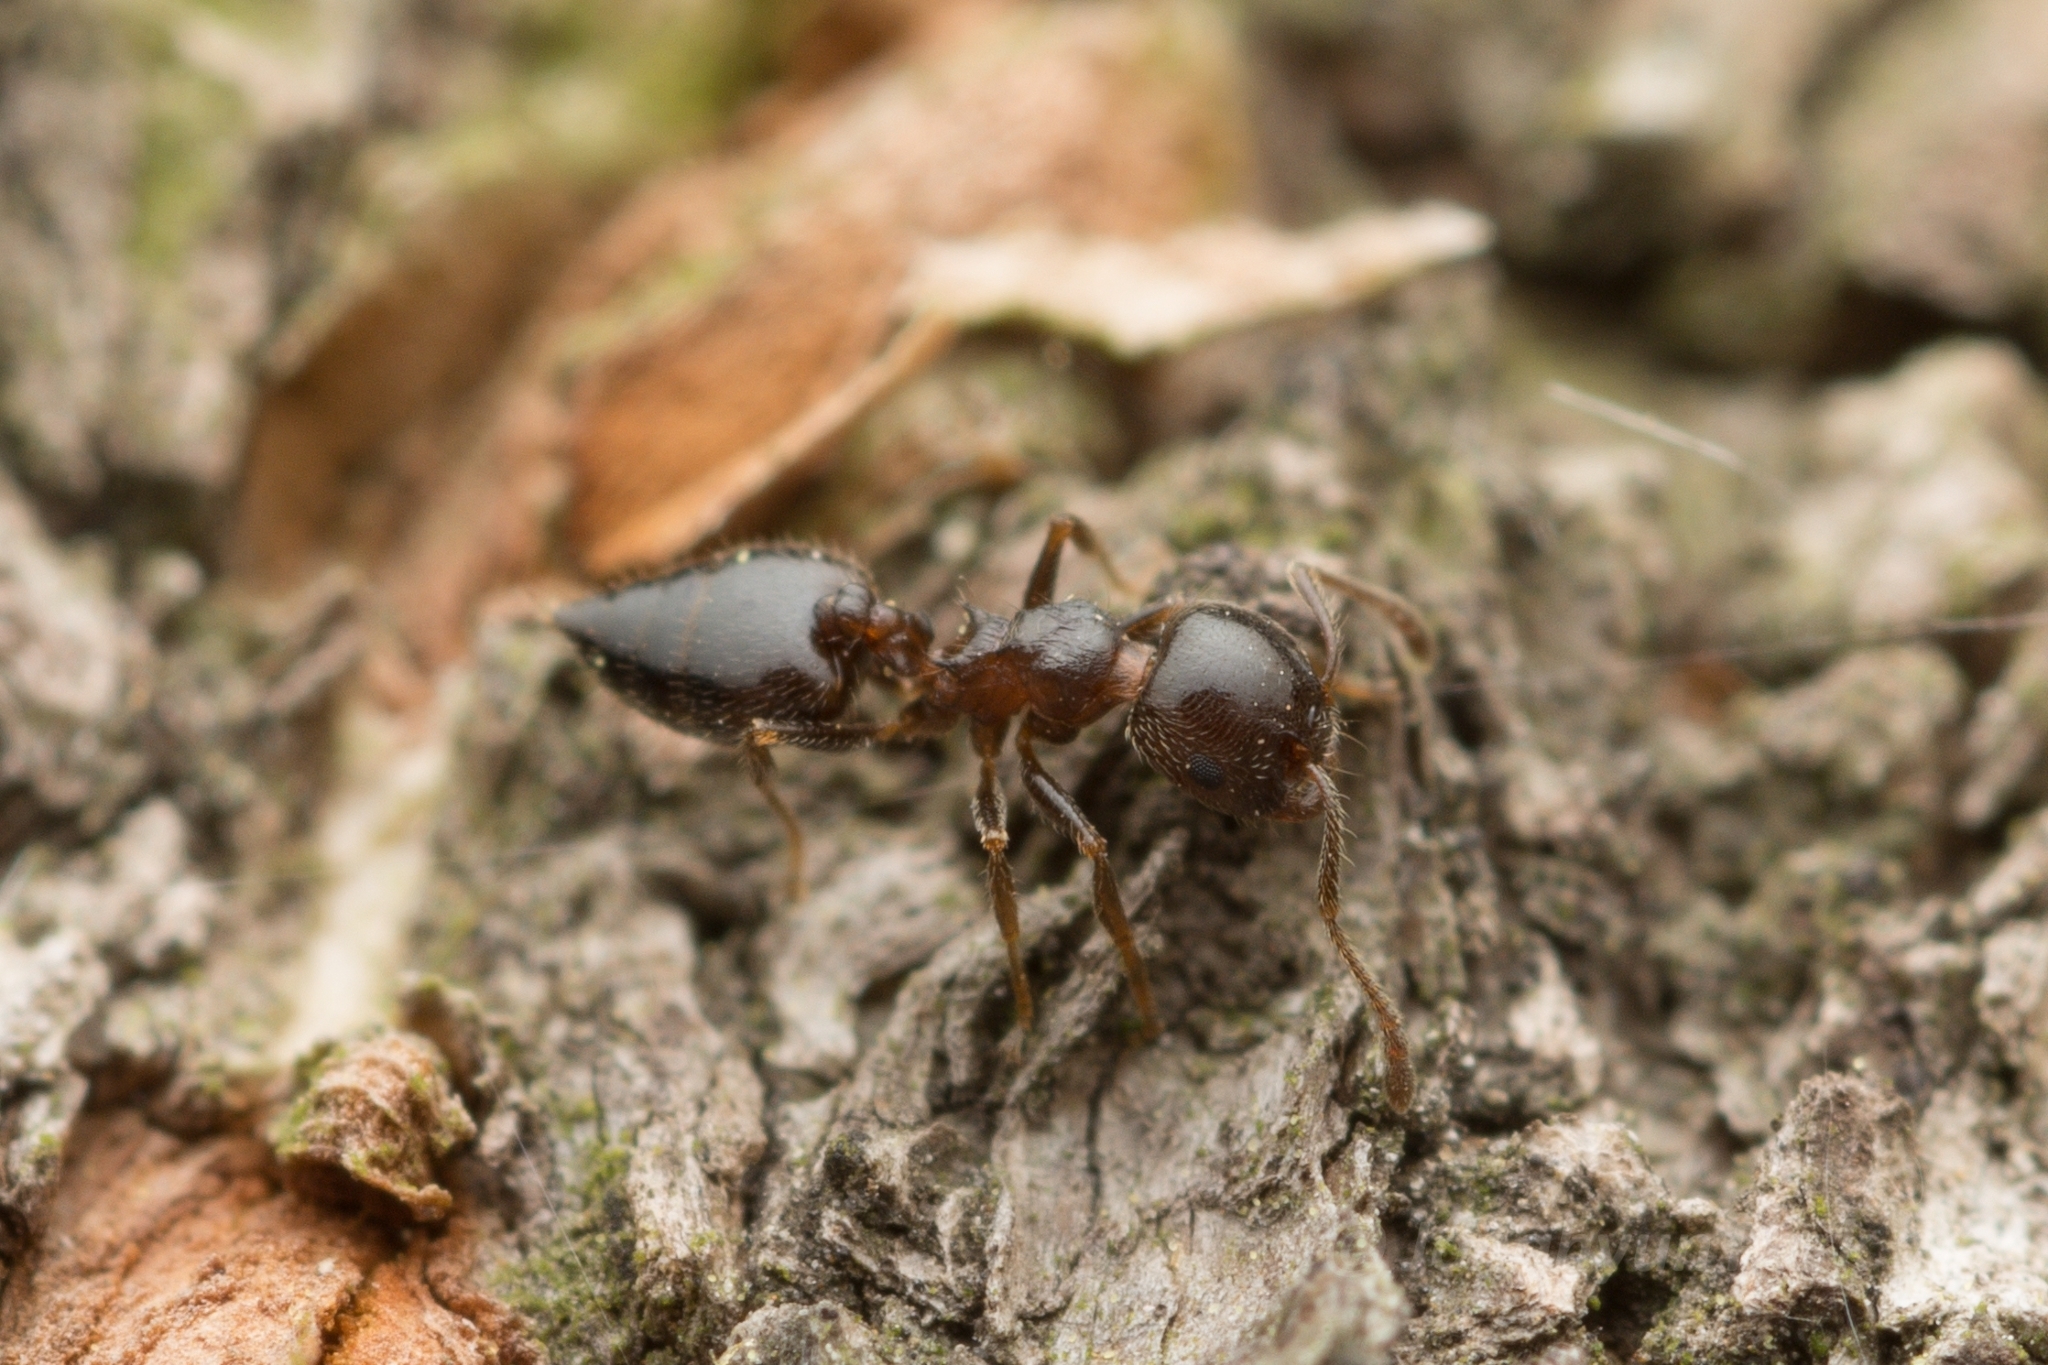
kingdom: Animalia
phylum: Arthropoda
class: Insecta
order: Hymenoptera
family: Formicidae
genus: Crematogaster
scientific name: Crematogaster matsumurai
